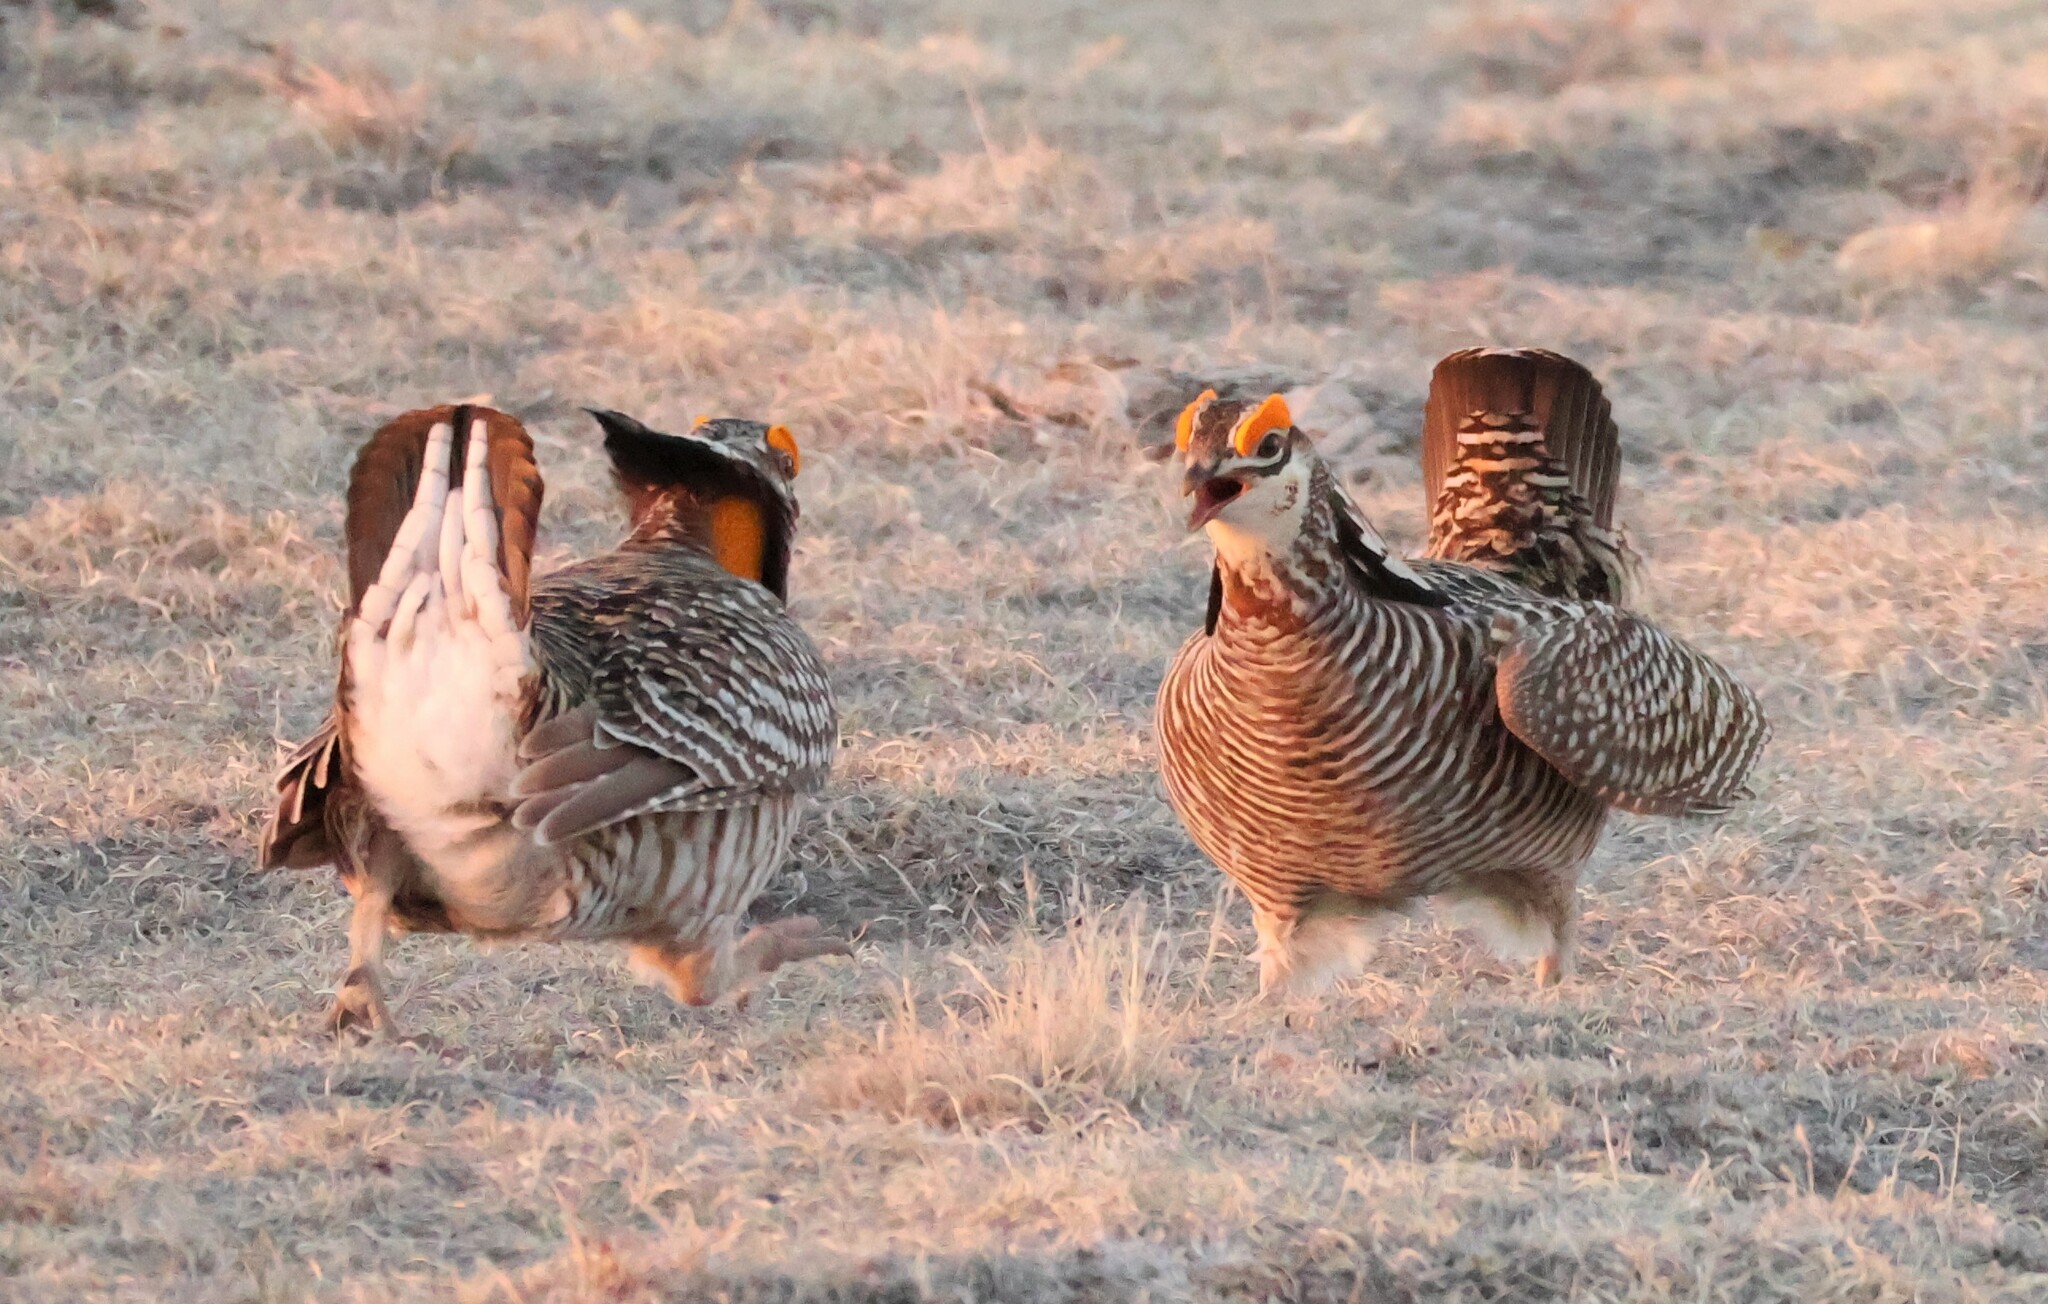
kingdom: Animalia
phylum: Chordata
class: Aves
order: Galliformes
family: Phasianidae
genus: Tympanuchus
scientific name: Tympanuchus cupido
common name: Greater prairie chicken
